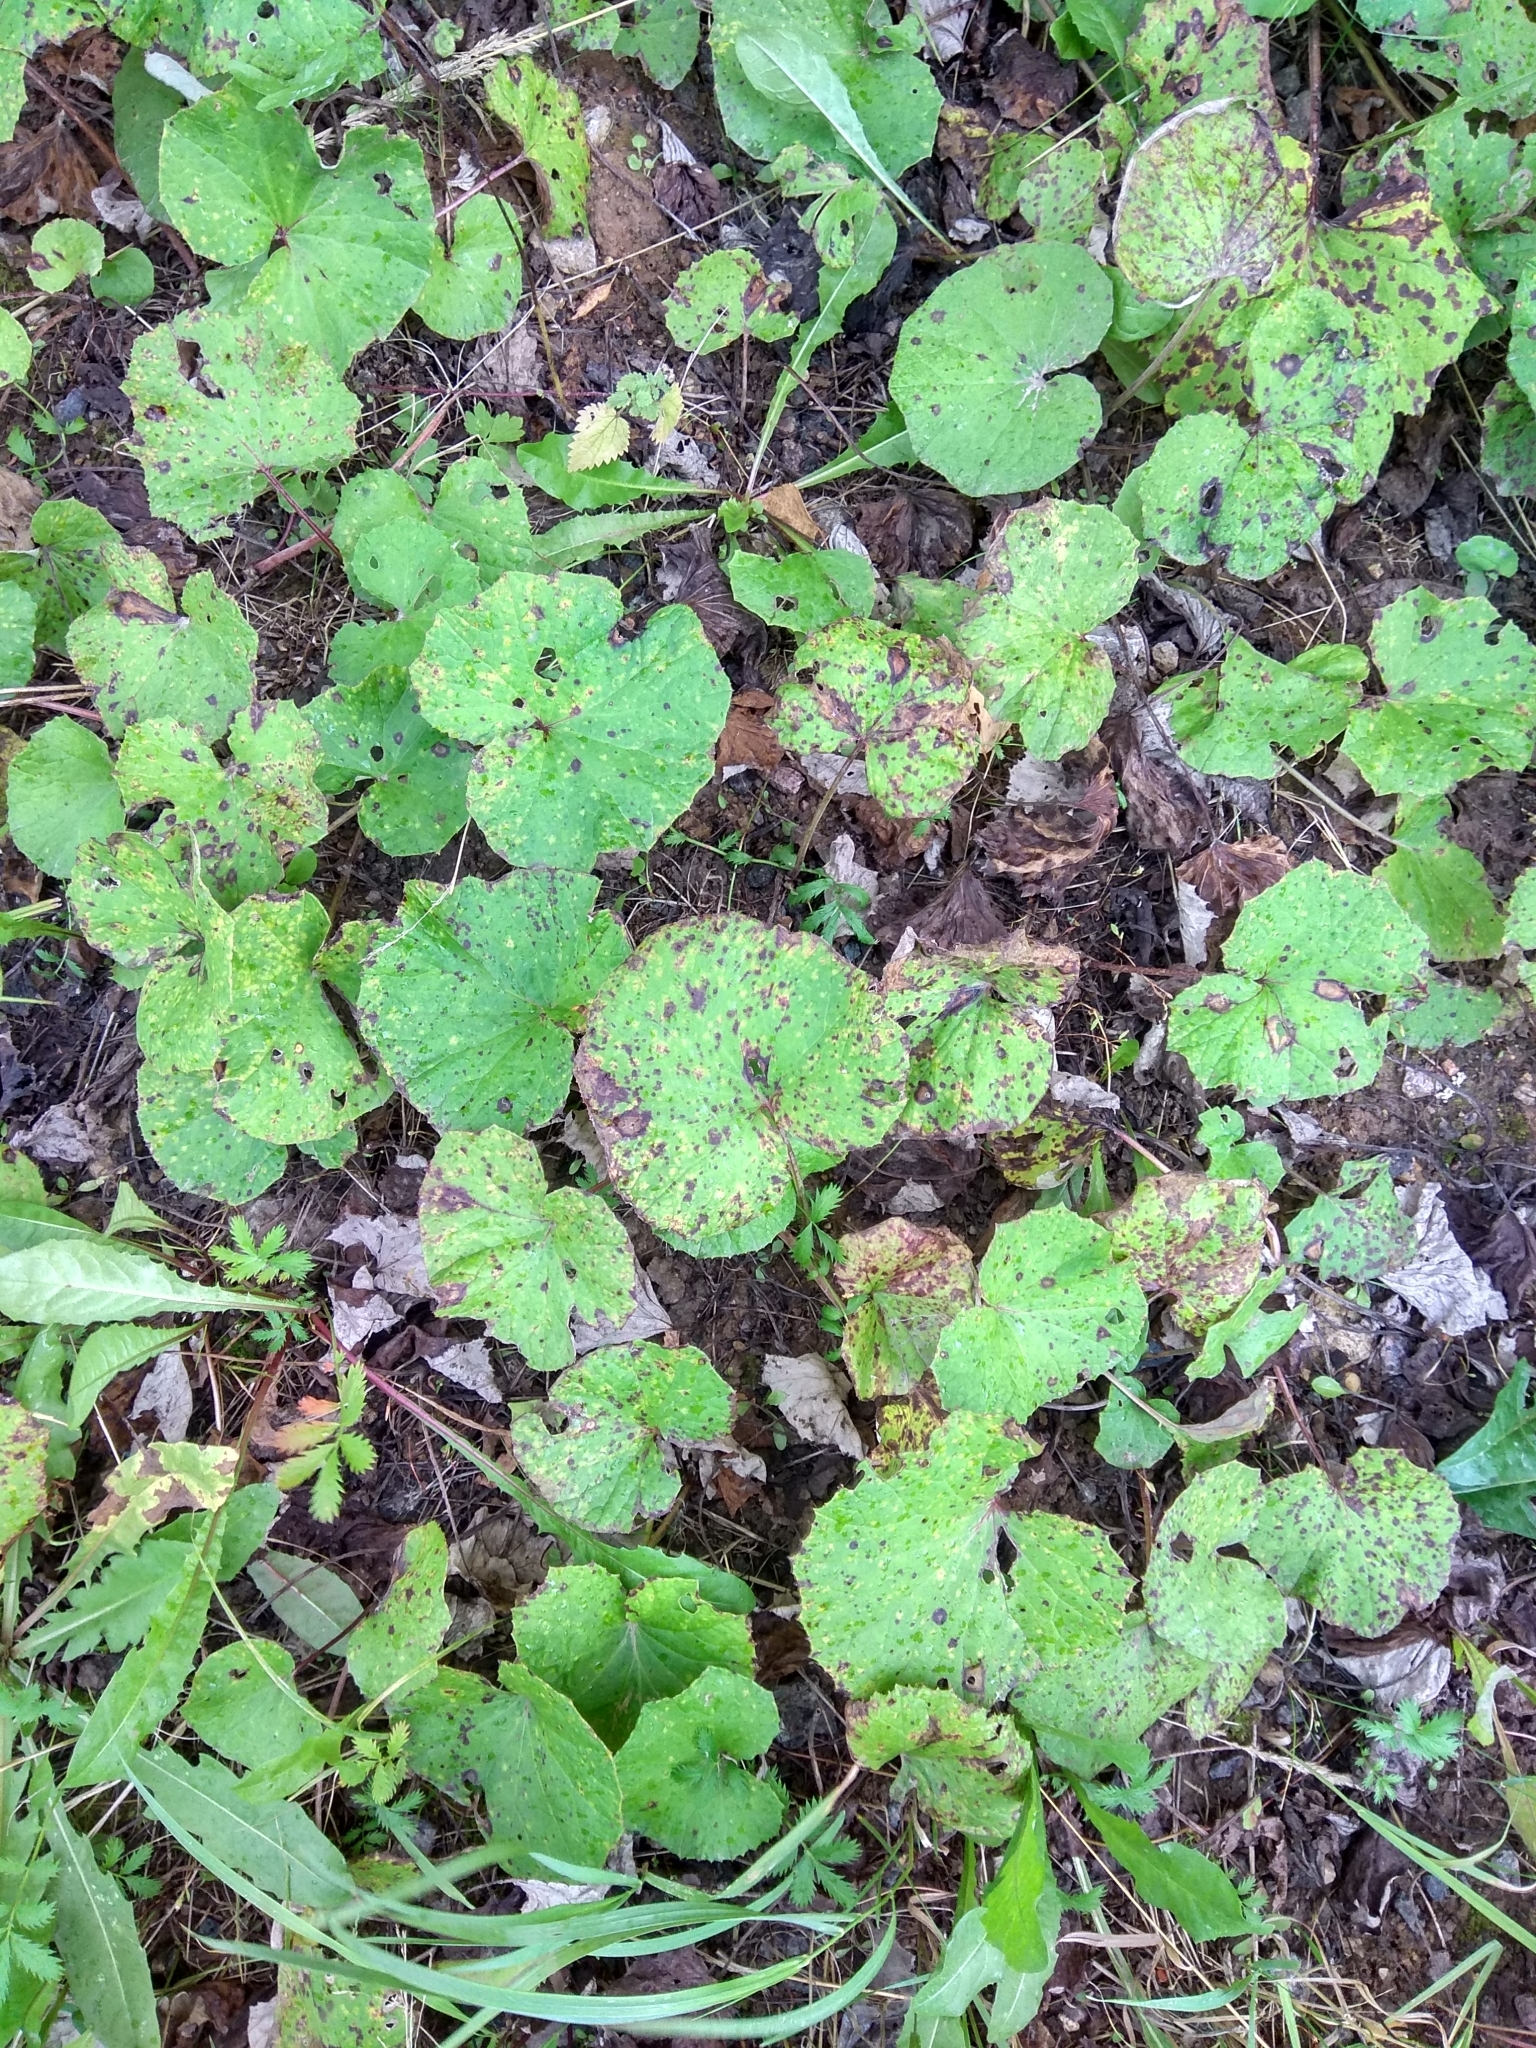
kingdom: Plantae
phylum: Tracheophyta
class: Magnoliopsida
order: Asterales
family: Asteraceae
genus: Tussilago
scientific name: Tussilago farfara
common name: Coltsfoot
